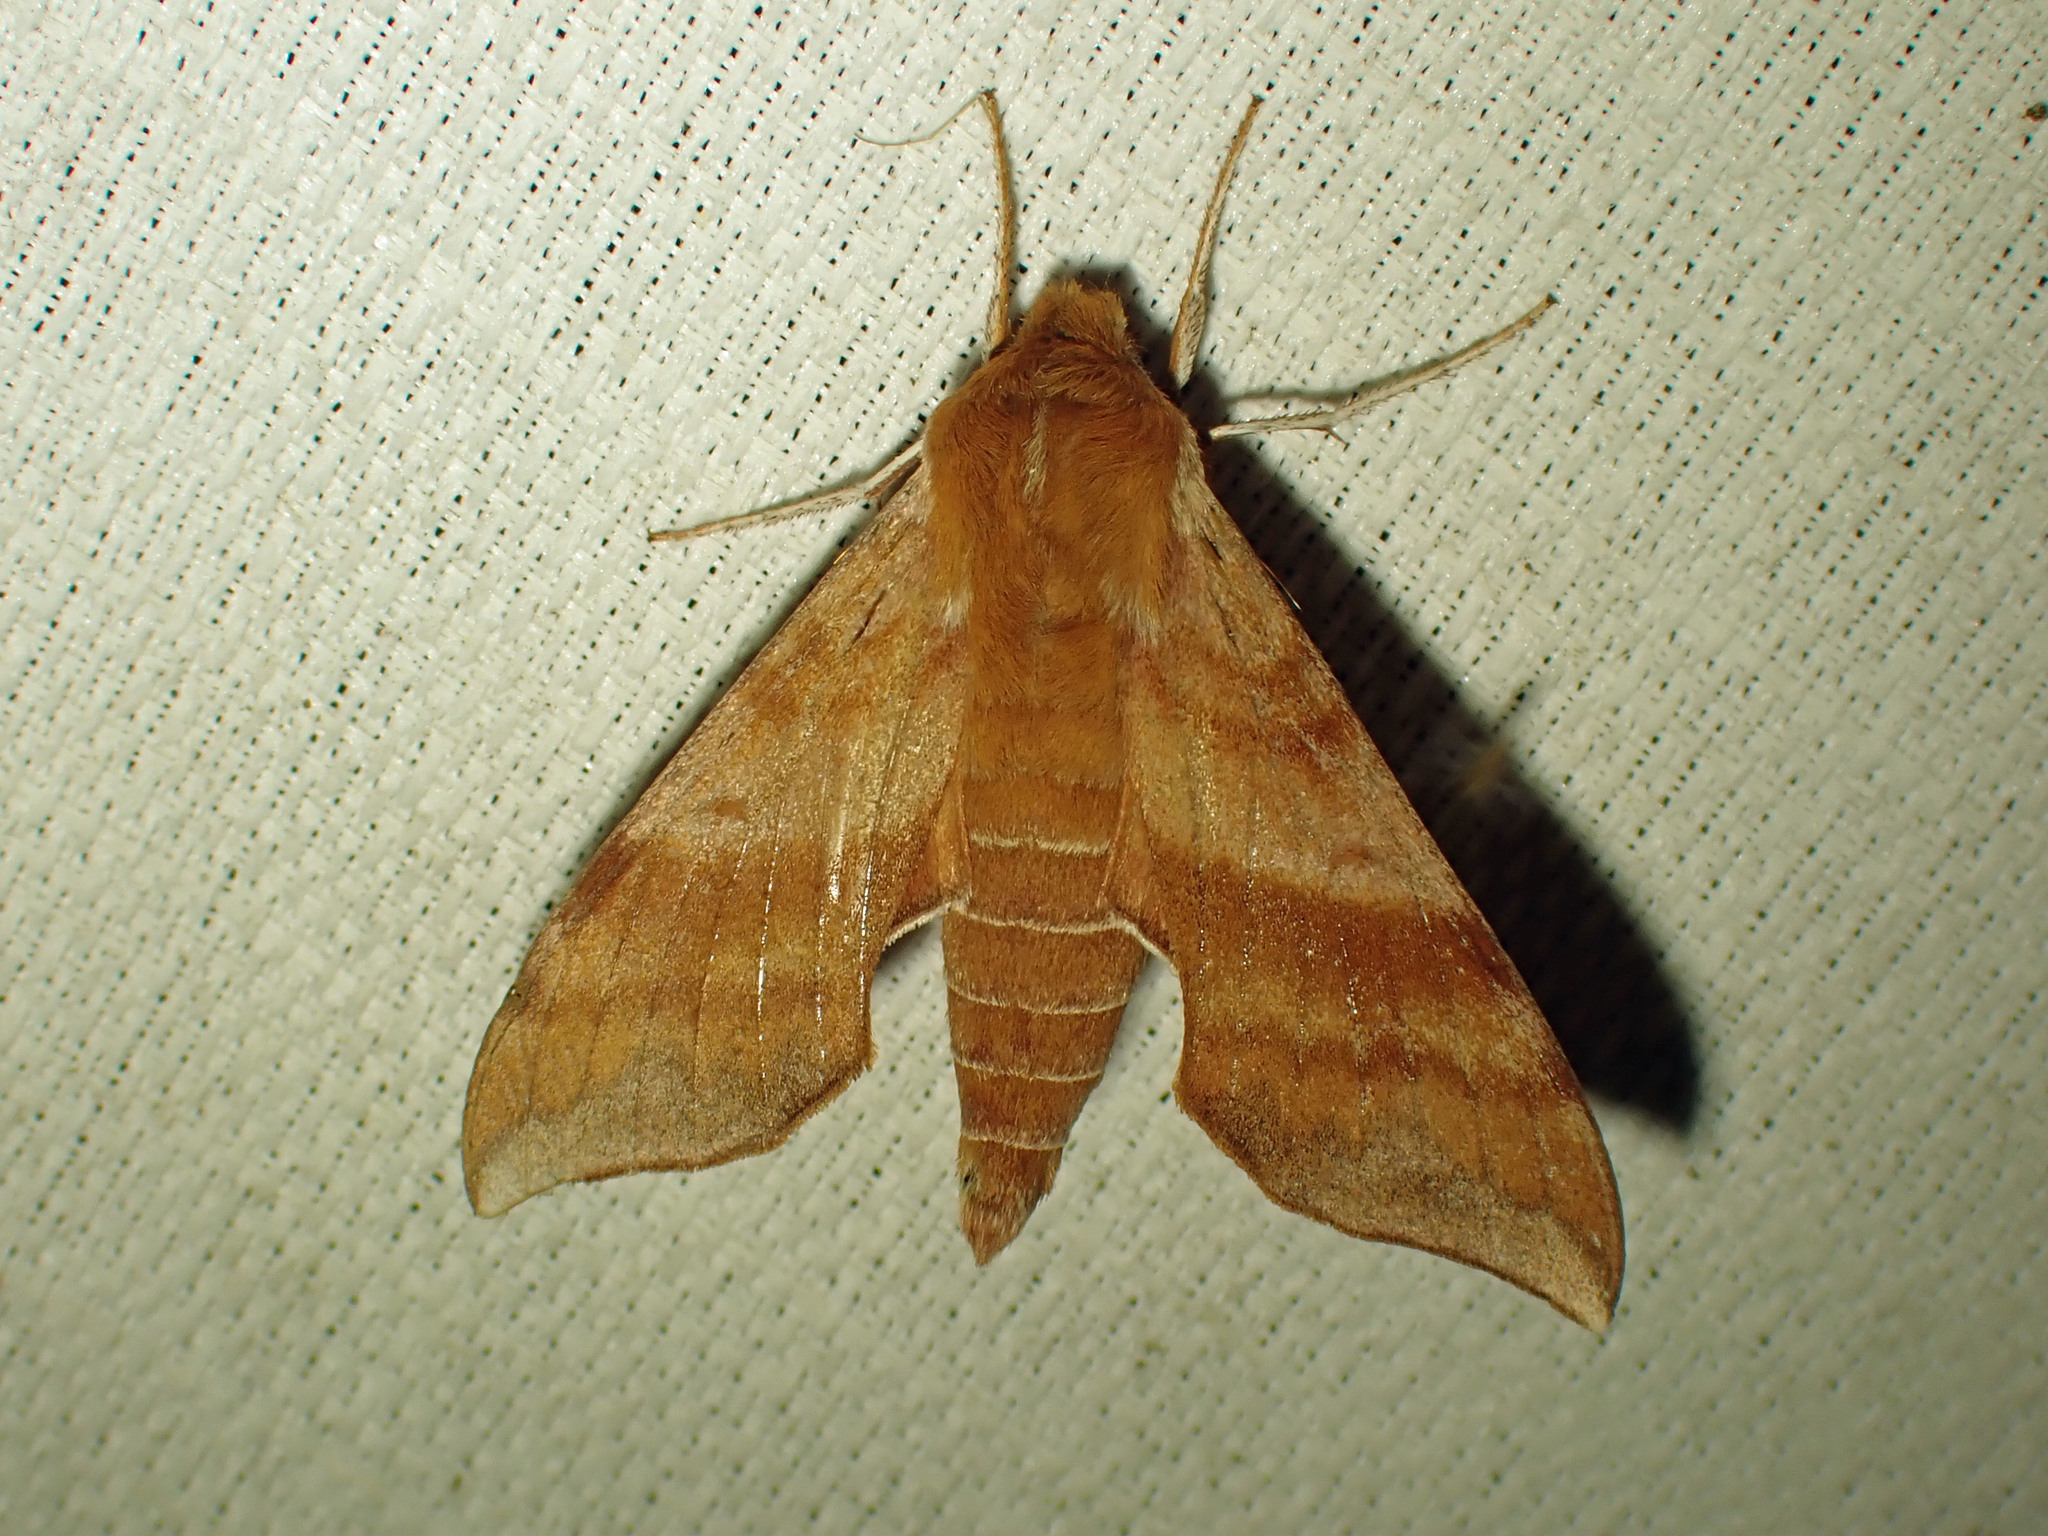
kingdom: Animalia
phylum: Arthropoda
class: Insecta
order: Lepidoptera
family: Sphingidae
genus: Darapsa
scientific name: Darapsa choerilus
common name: Azalea sphinx
